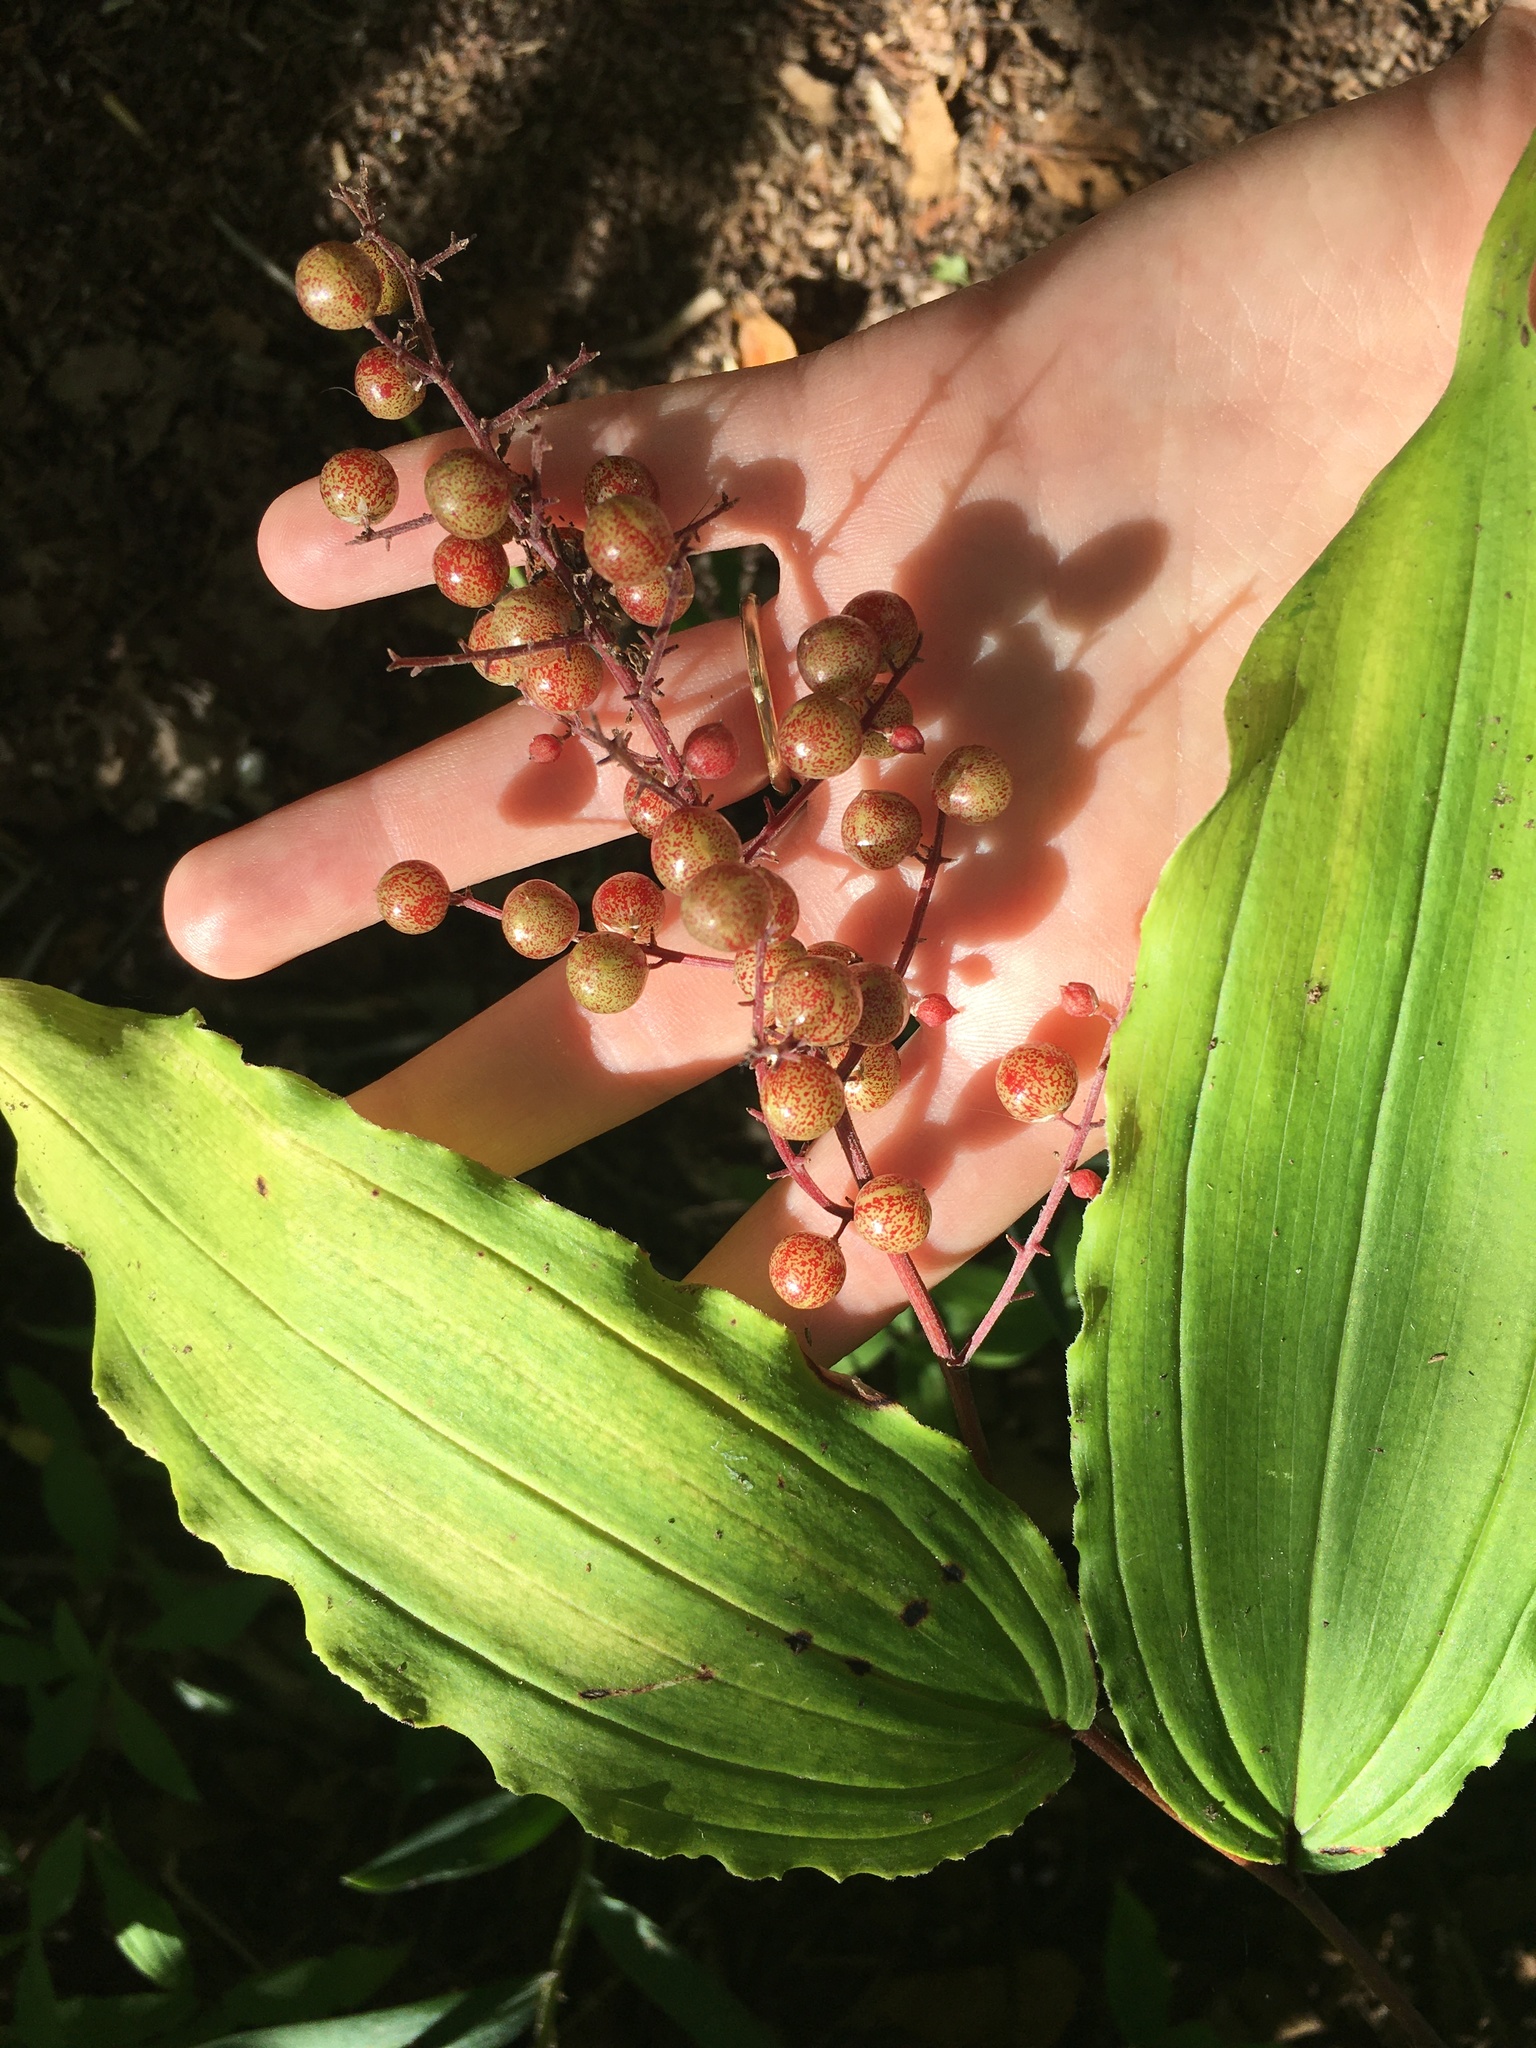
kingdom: Plantae
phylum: Tracheophyta
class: Liliopsida
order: Asparagales
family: Asparagaceae
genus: Maianthemum
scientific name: Maianthemum racemosum
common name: False spikenard
